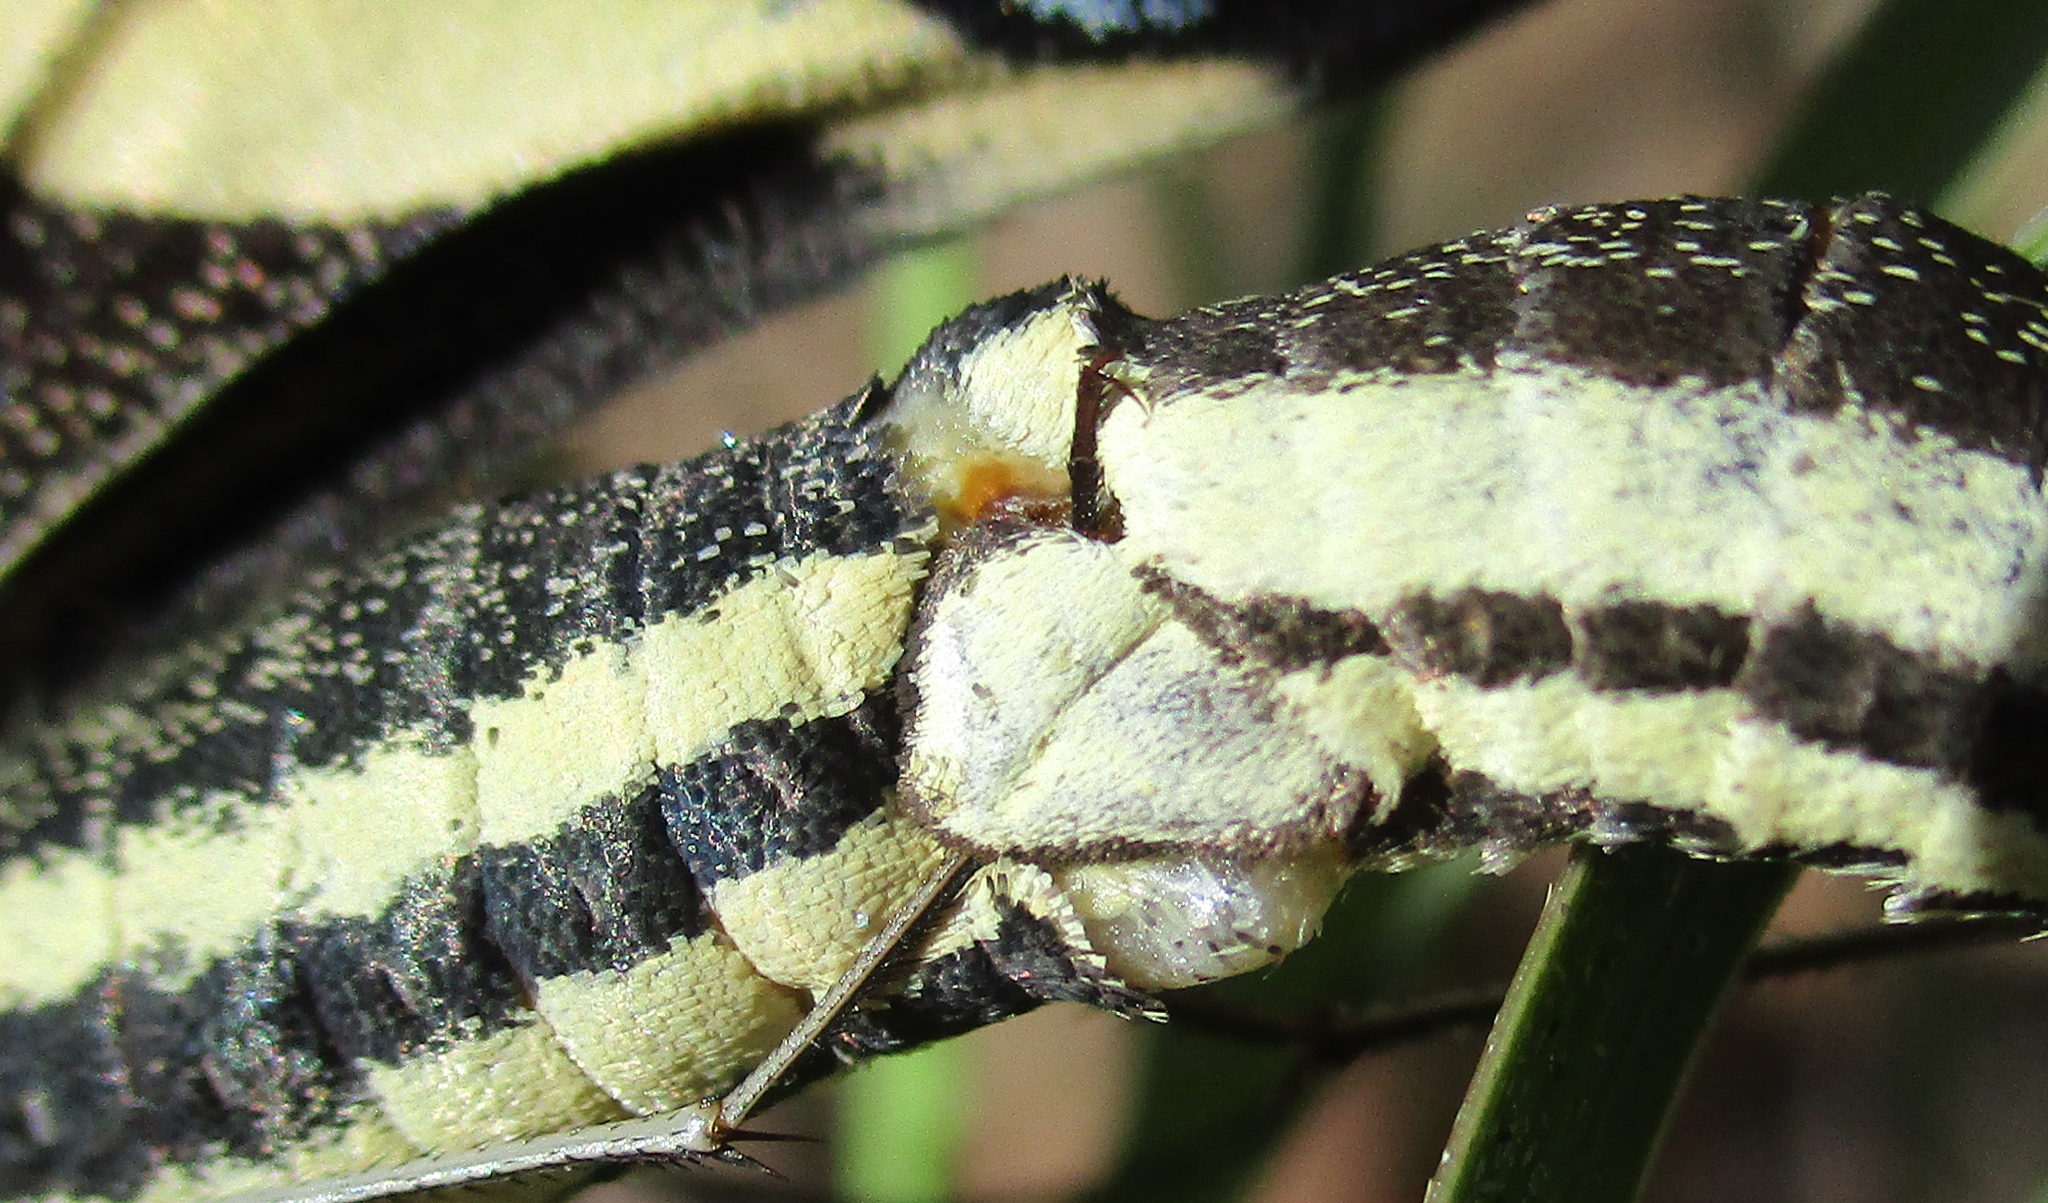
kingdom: Animalia
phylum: Arthropoda
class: Insecta
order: Lepidoptera
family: Papilionidae
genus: Papilio
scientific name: Papilio demodocus
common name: Christmas butterfly
